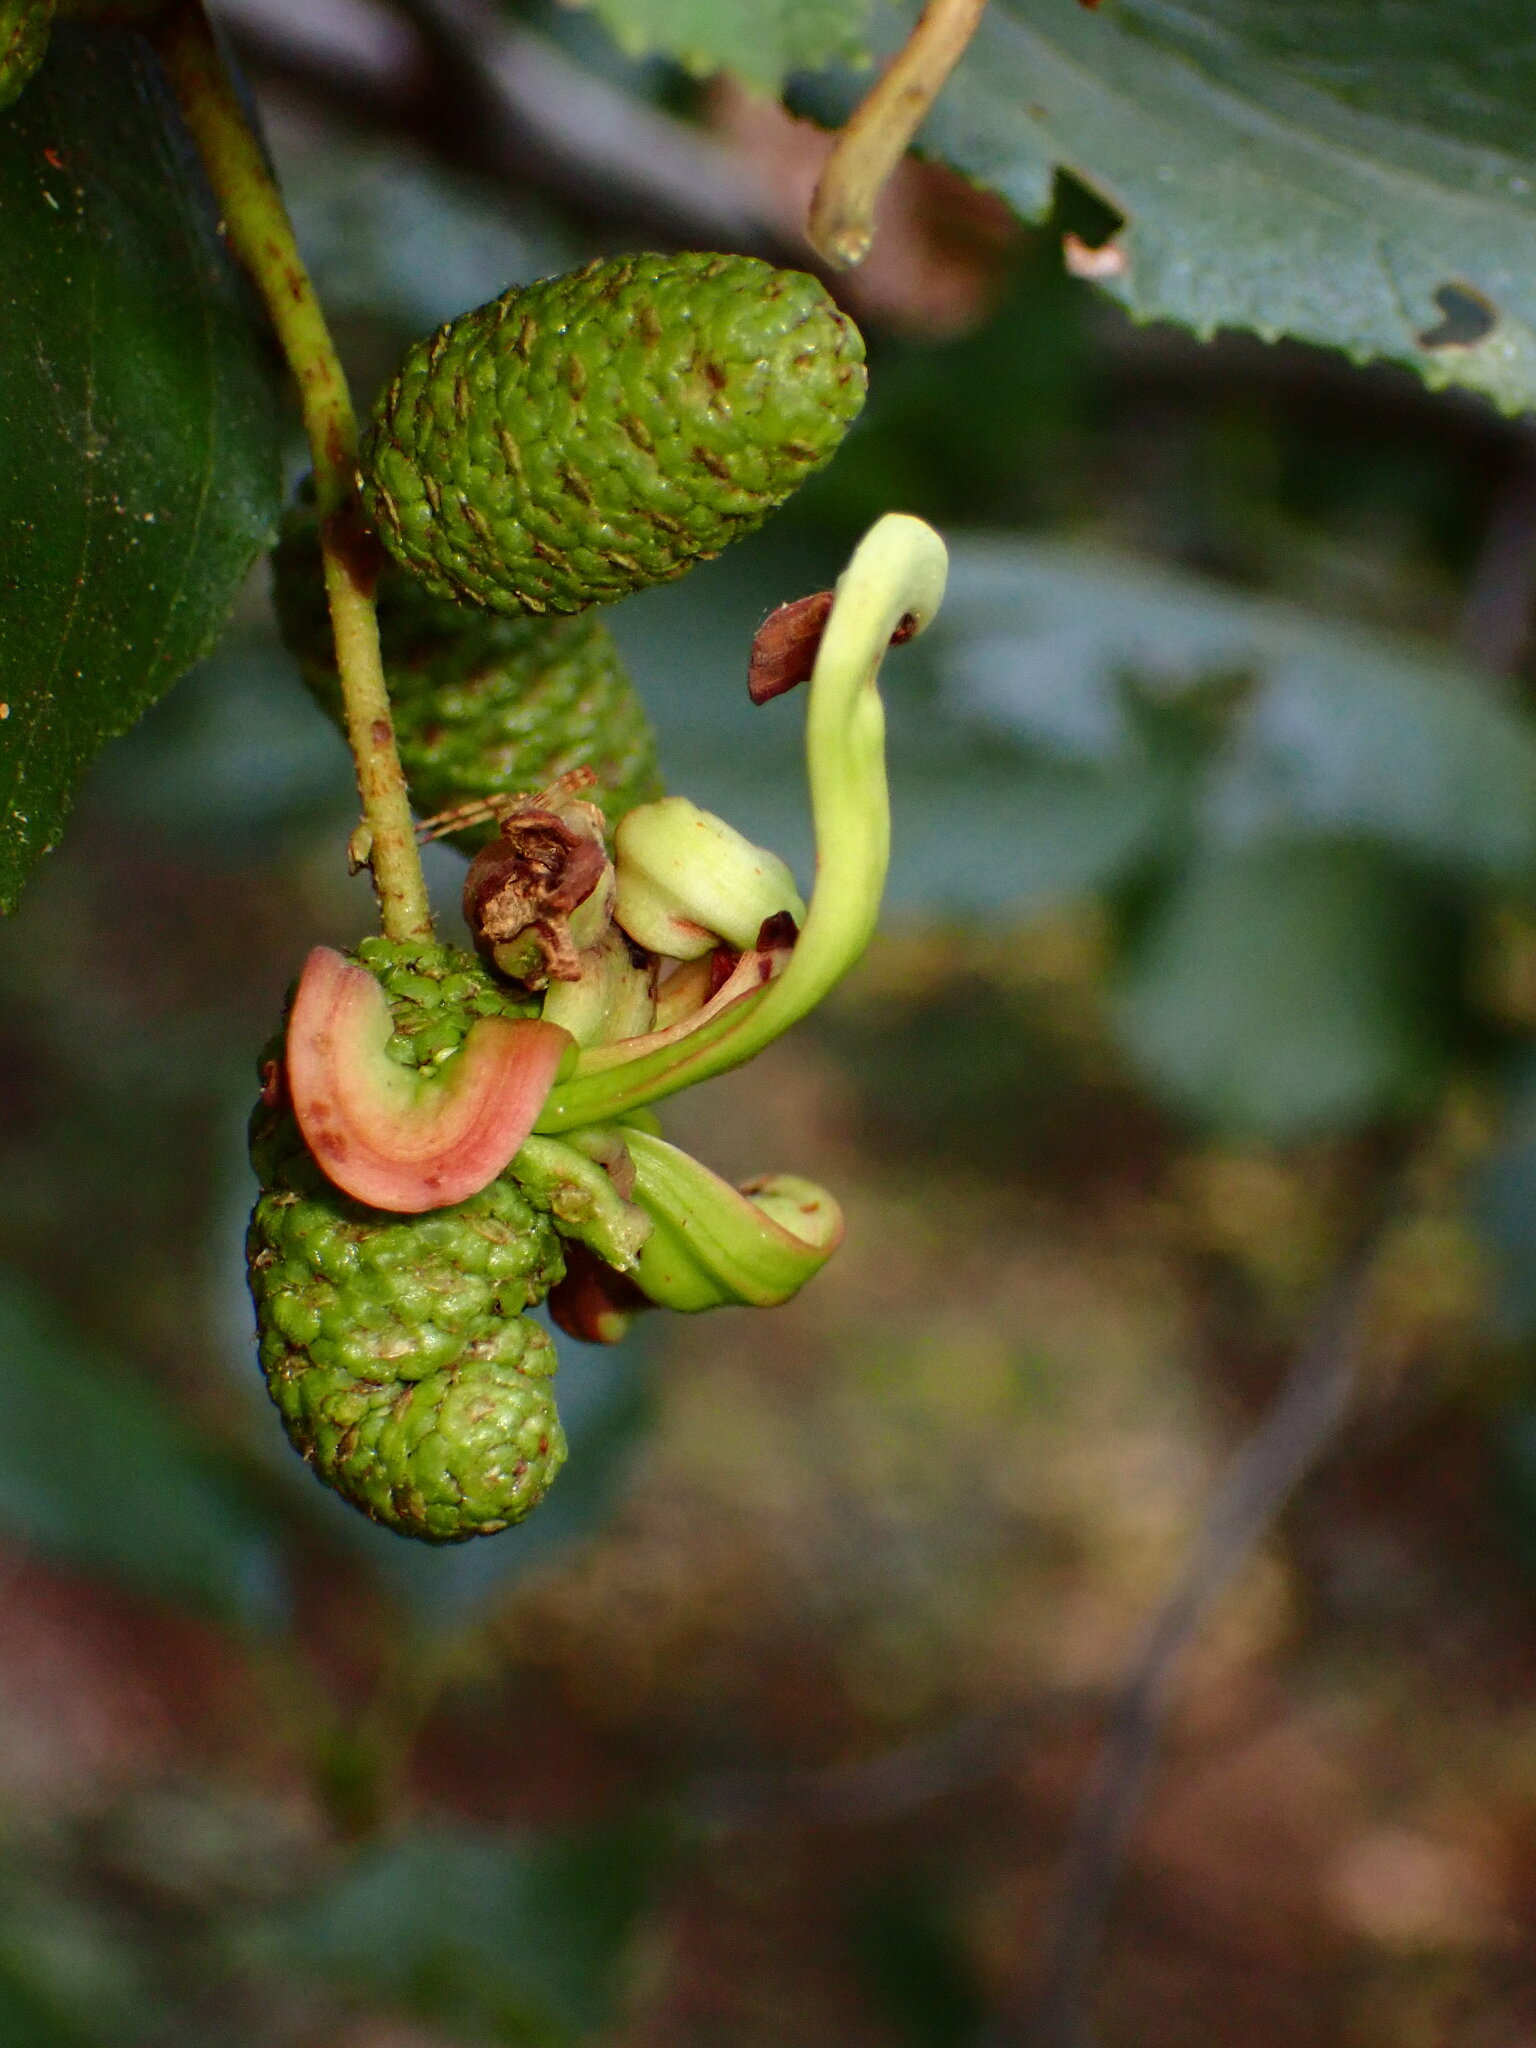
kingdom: Fungi
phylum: Ascomycota
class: Taphrinomycetes
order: Taphrinales
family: Taphrinaceae
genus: Taphrina
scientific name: Taphrina occidentalis
